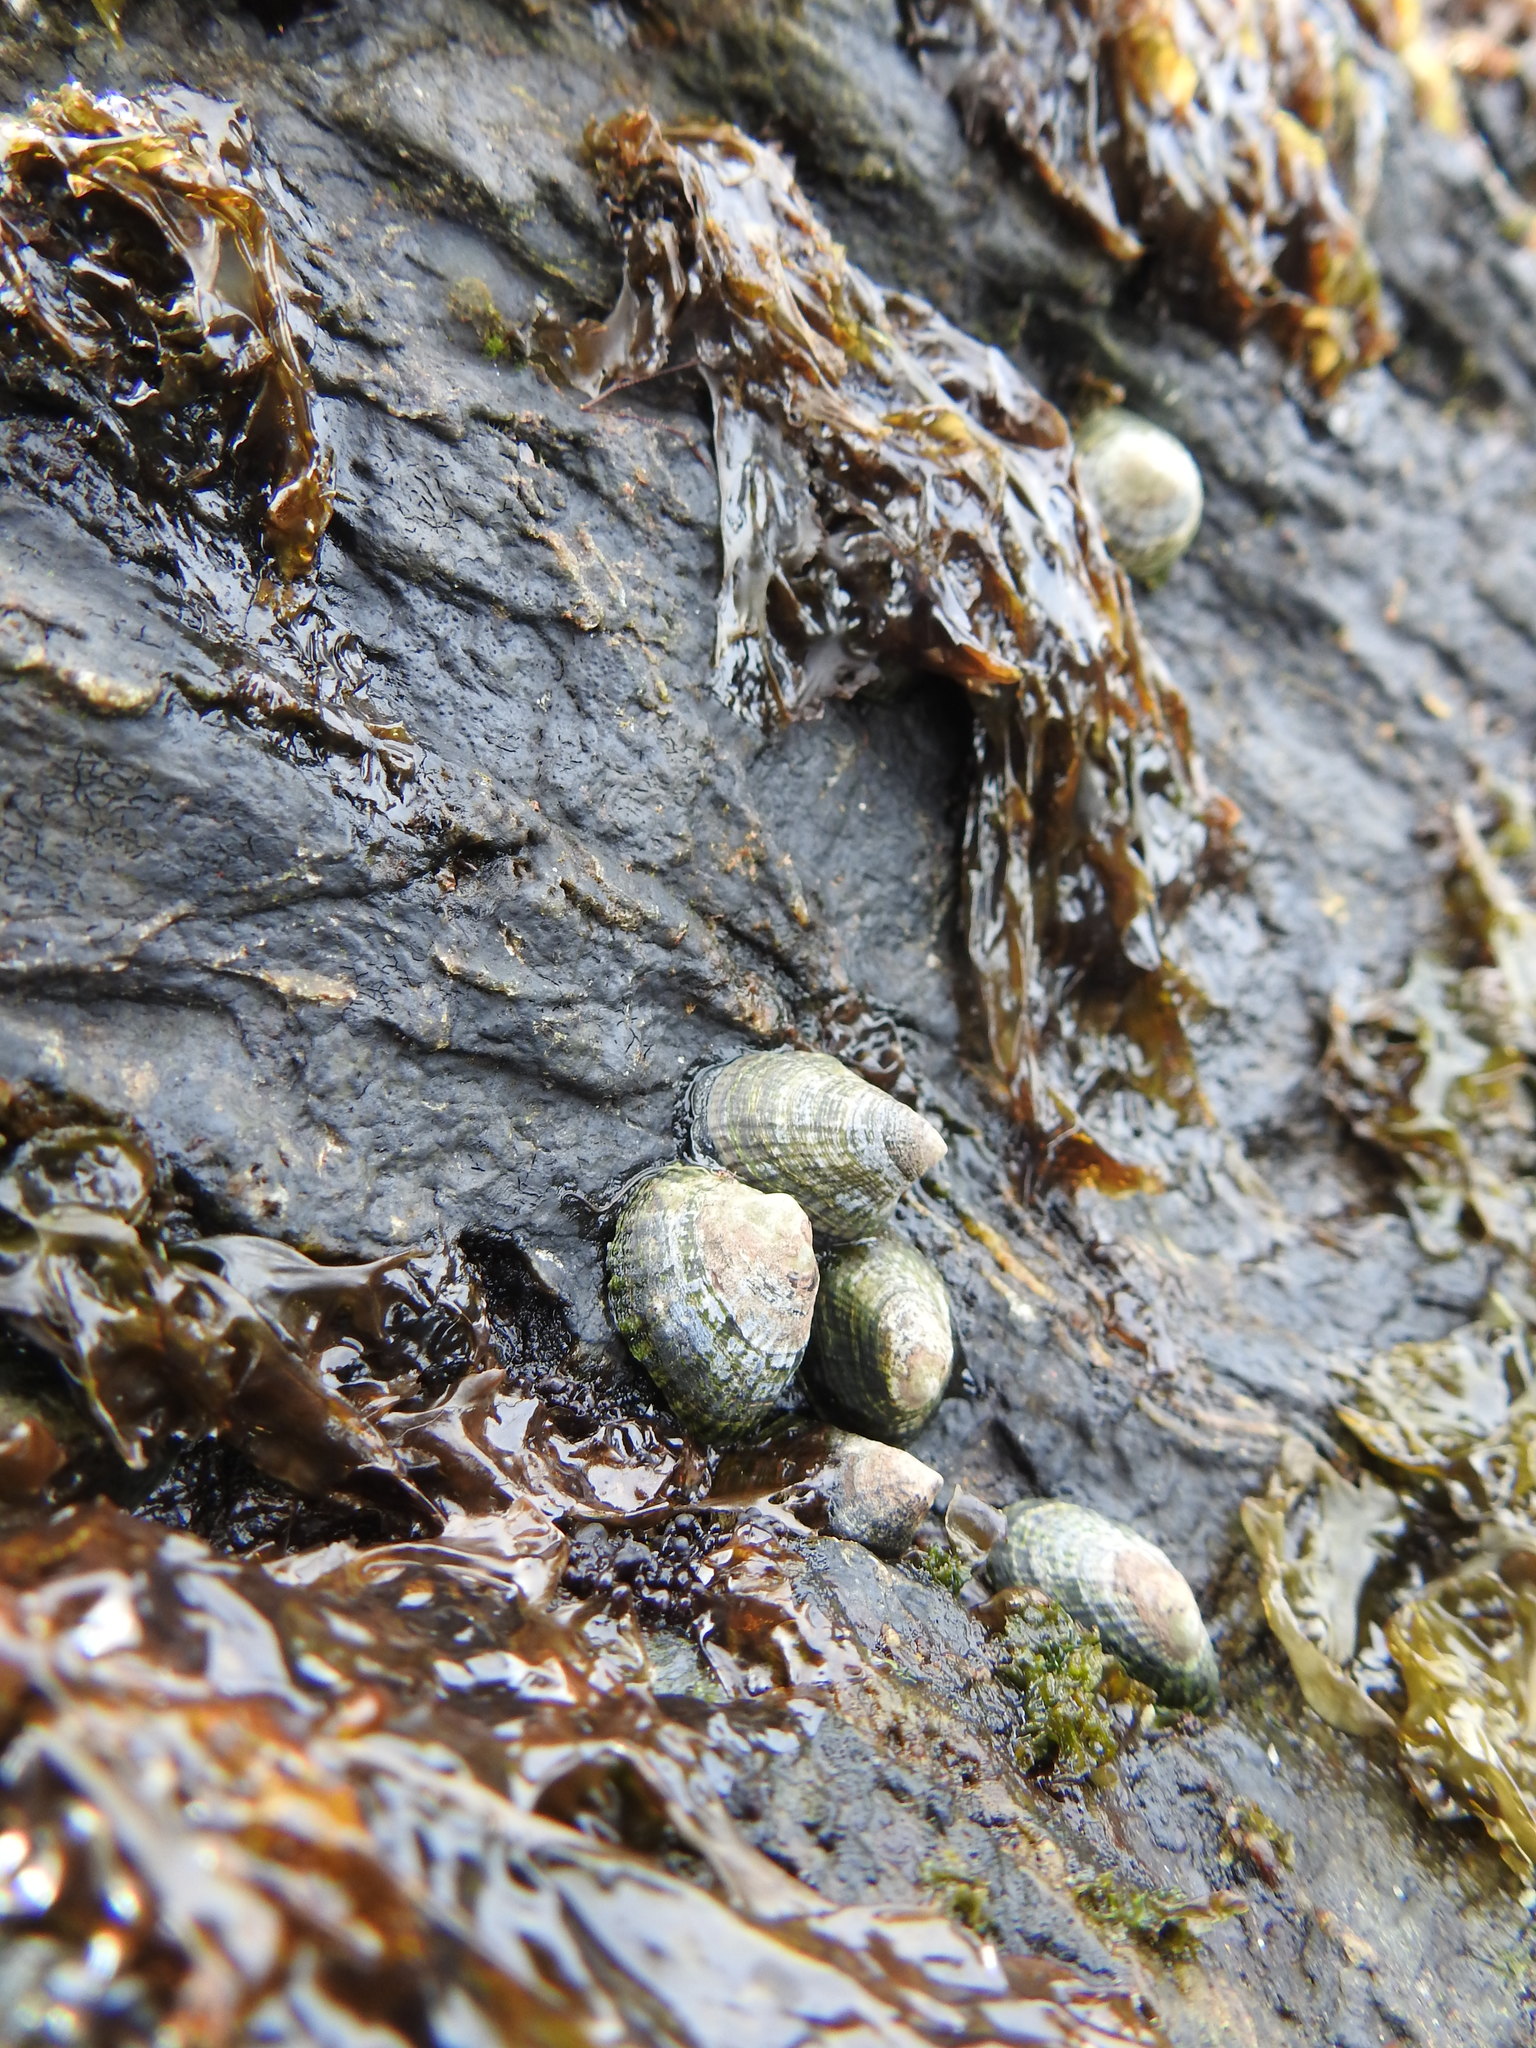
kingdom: Animalia
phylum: Mollusca
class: Gastropoda
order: Siphonariida
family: Siphonariidae
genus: Siphonaria
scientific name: Siphonaria lessonii
